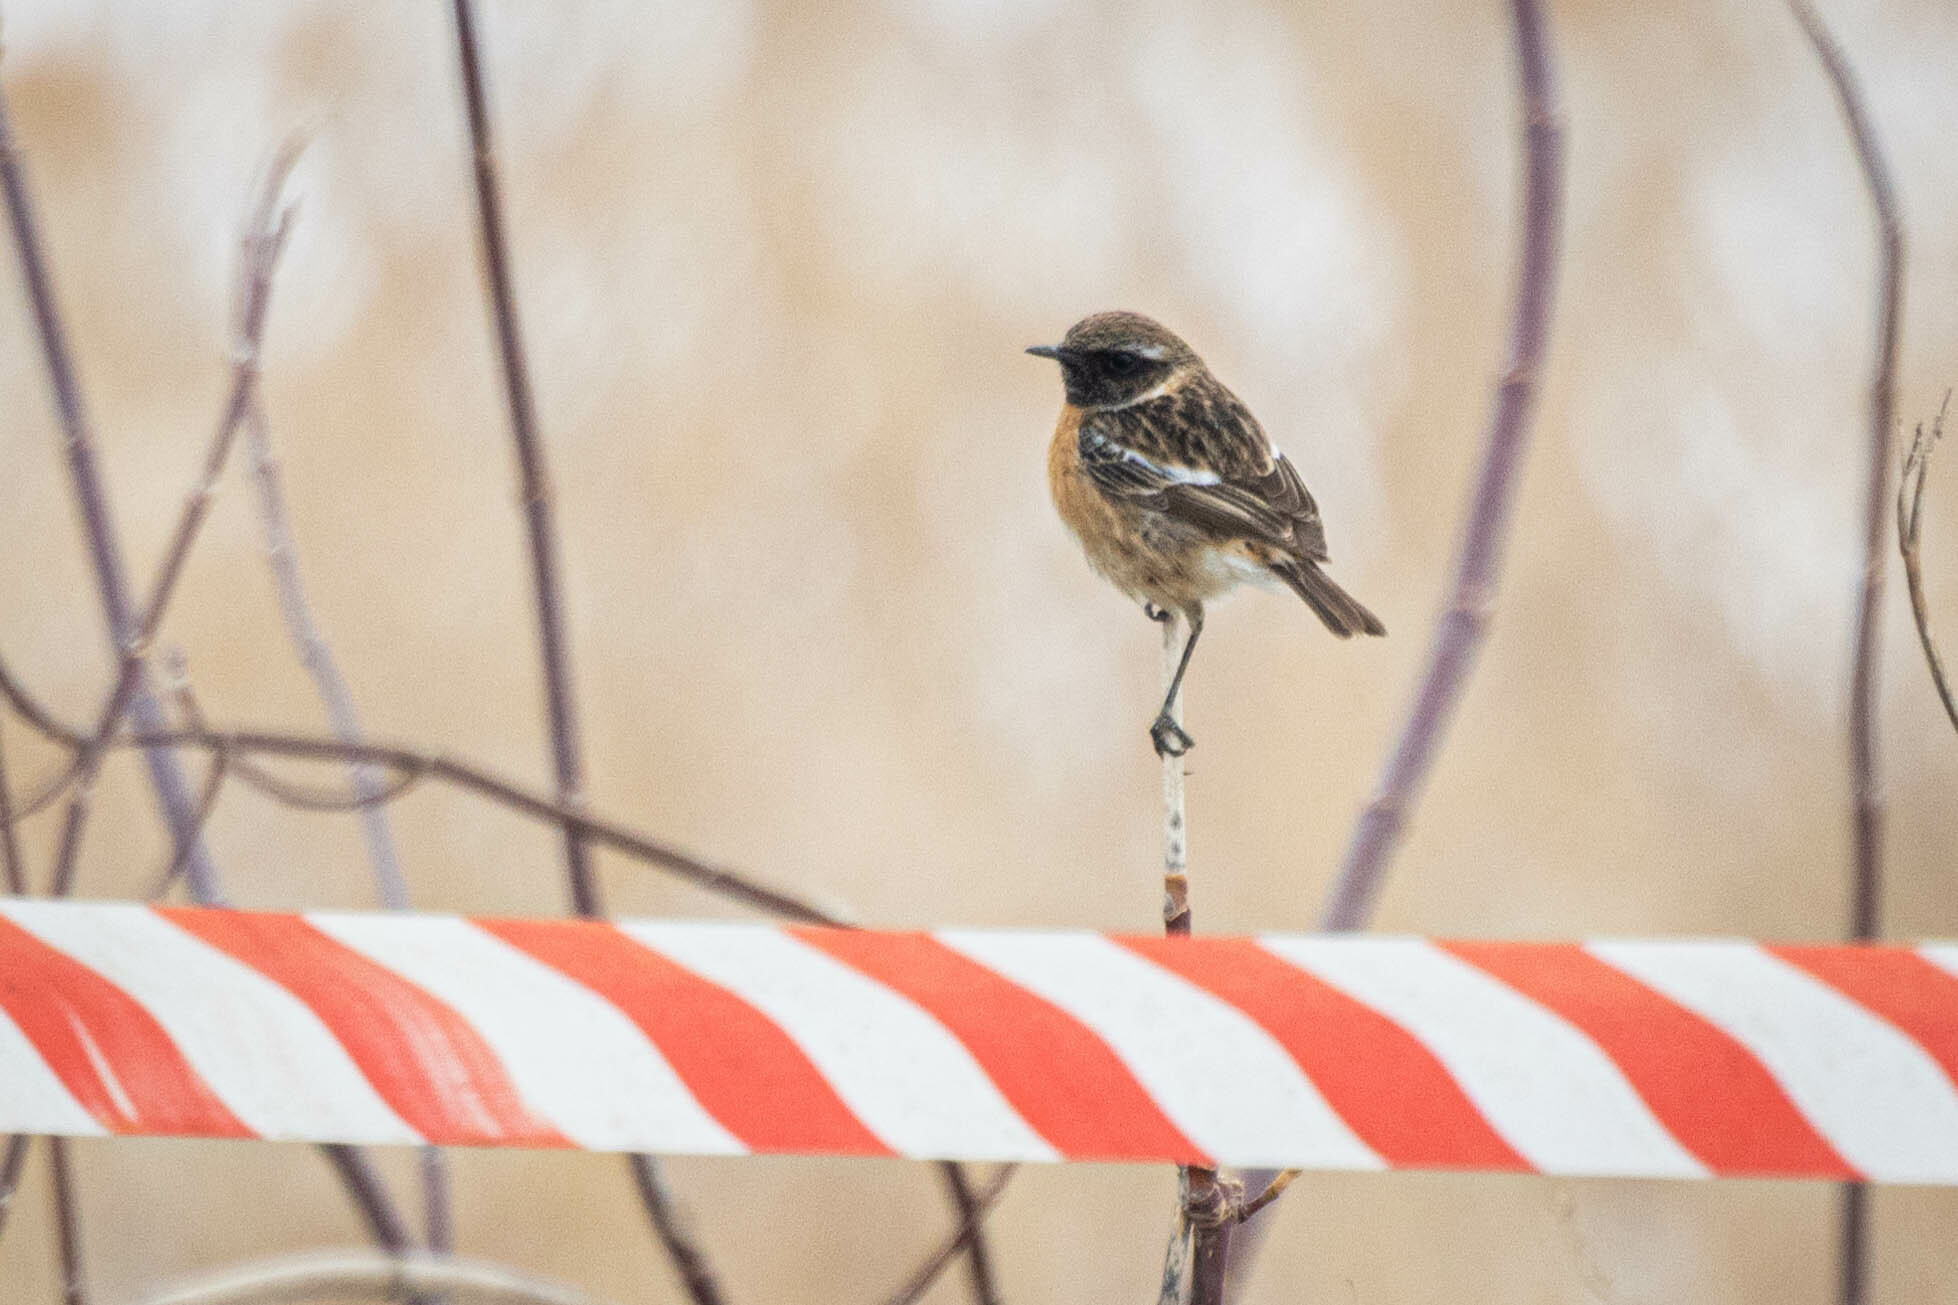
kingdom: Animalia
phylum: Chordata
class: Aves
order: Passeriformes
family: Muscicapidae
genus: Saxicola
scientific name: Saxicola rubicola
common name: European stonechat
